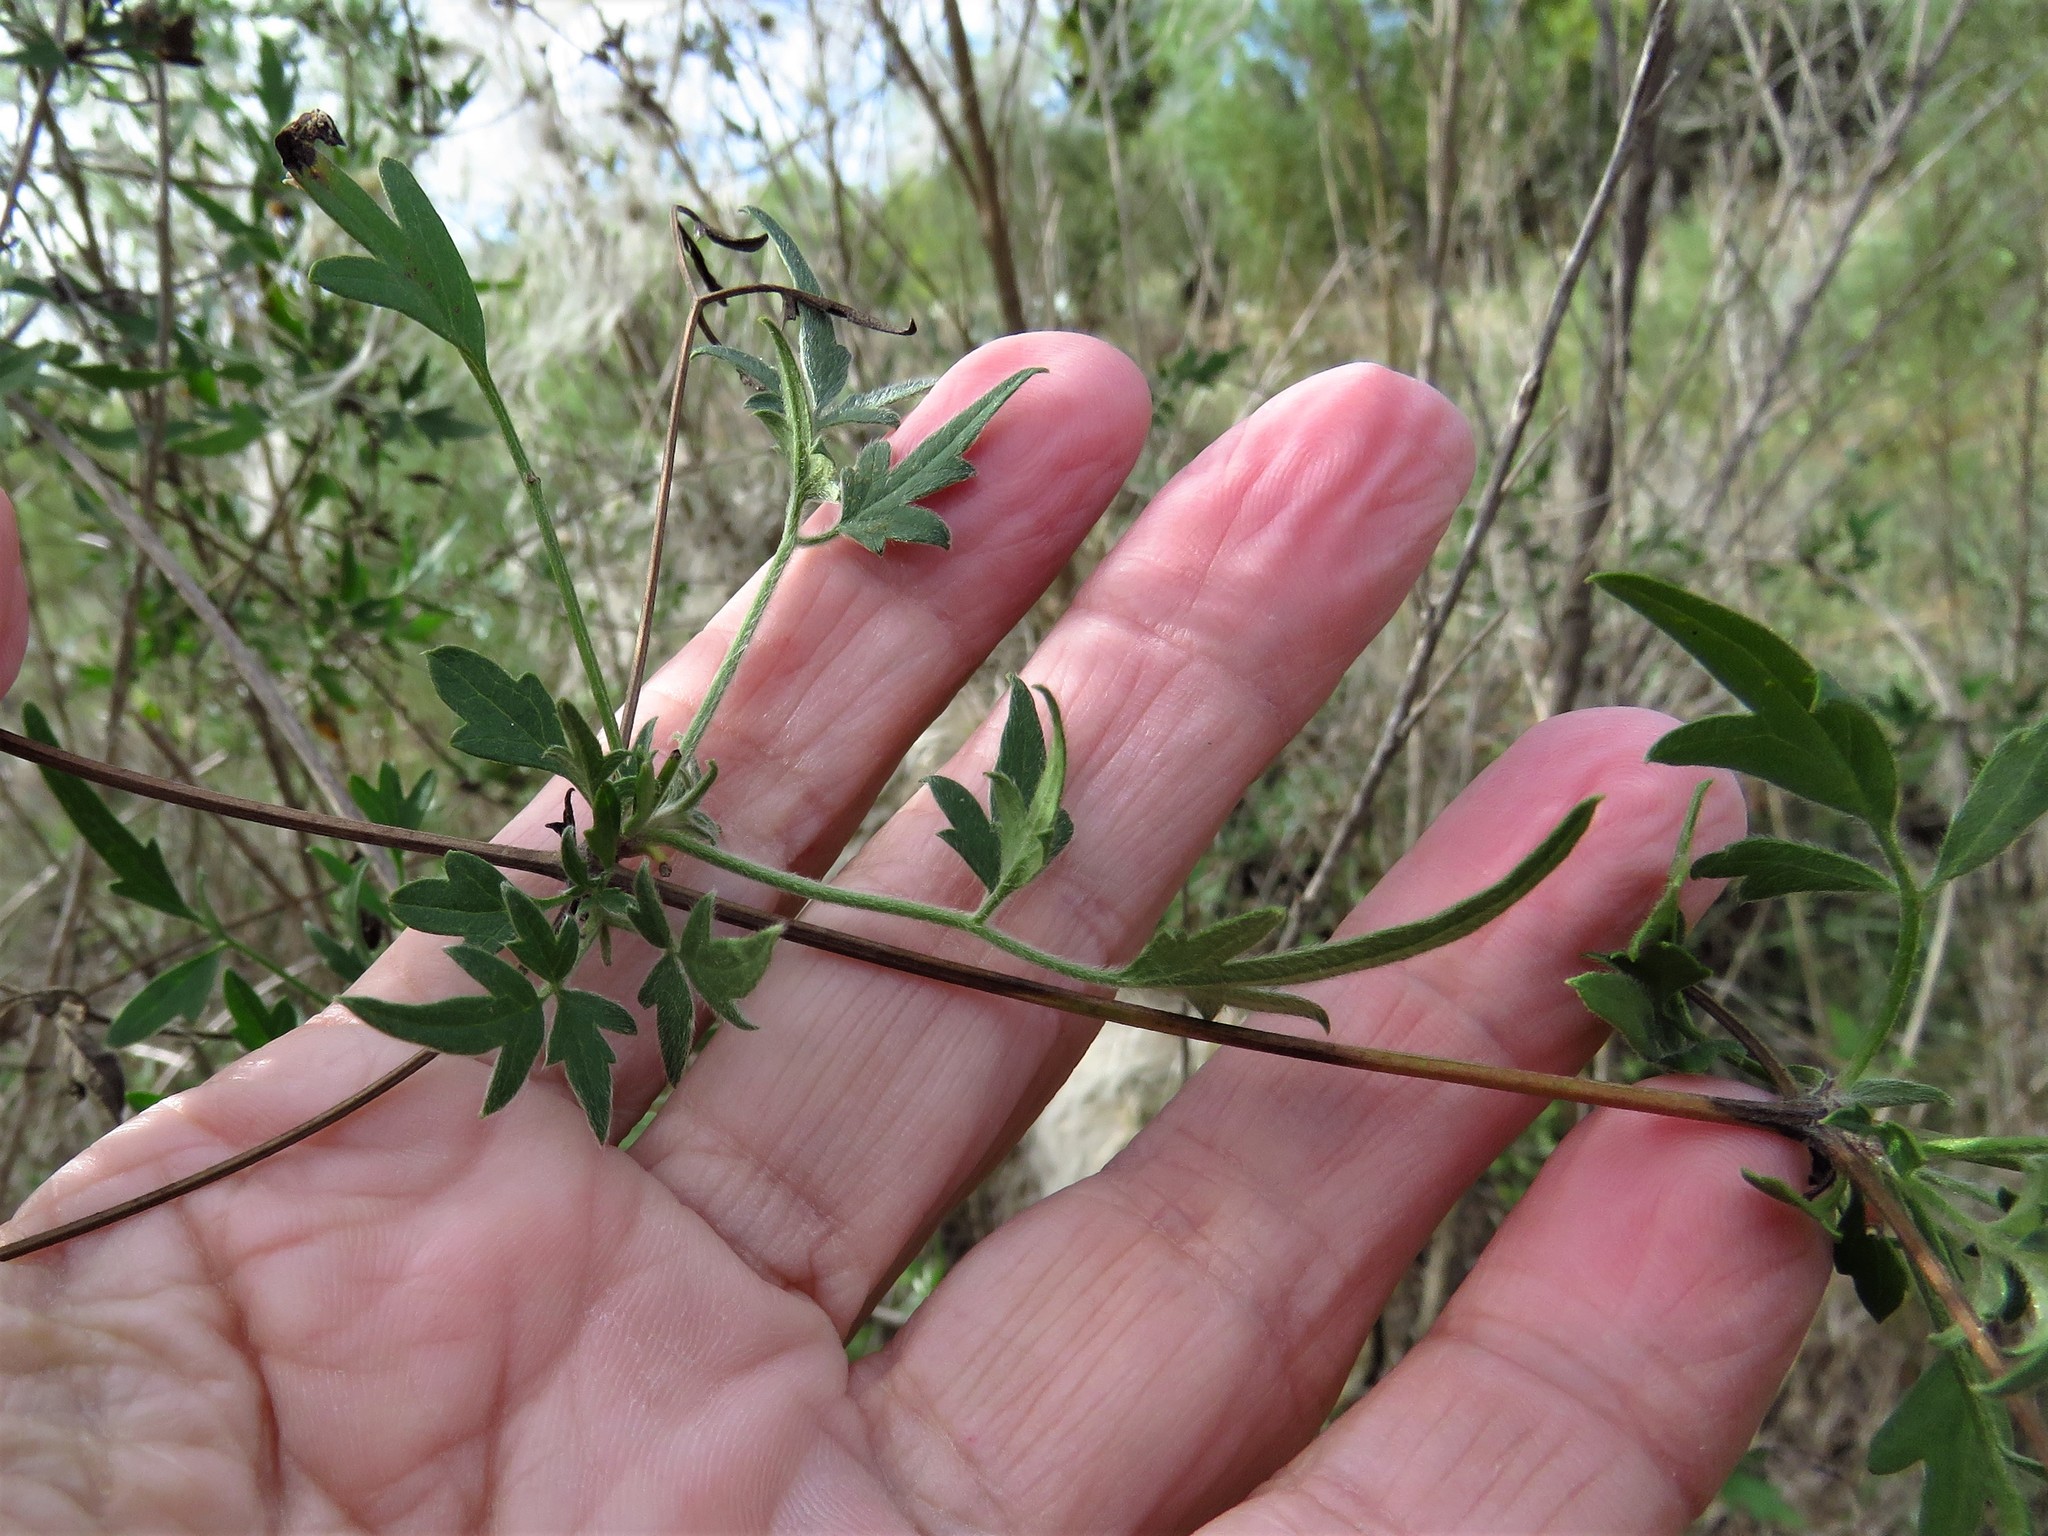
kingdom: Plantae
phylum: Tracheophyta
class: Magnoliopsida
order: Ranunculales
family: Ranunculaceae
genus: Clematis
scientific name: Clematis drummondii
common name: Texas virgin's bower
